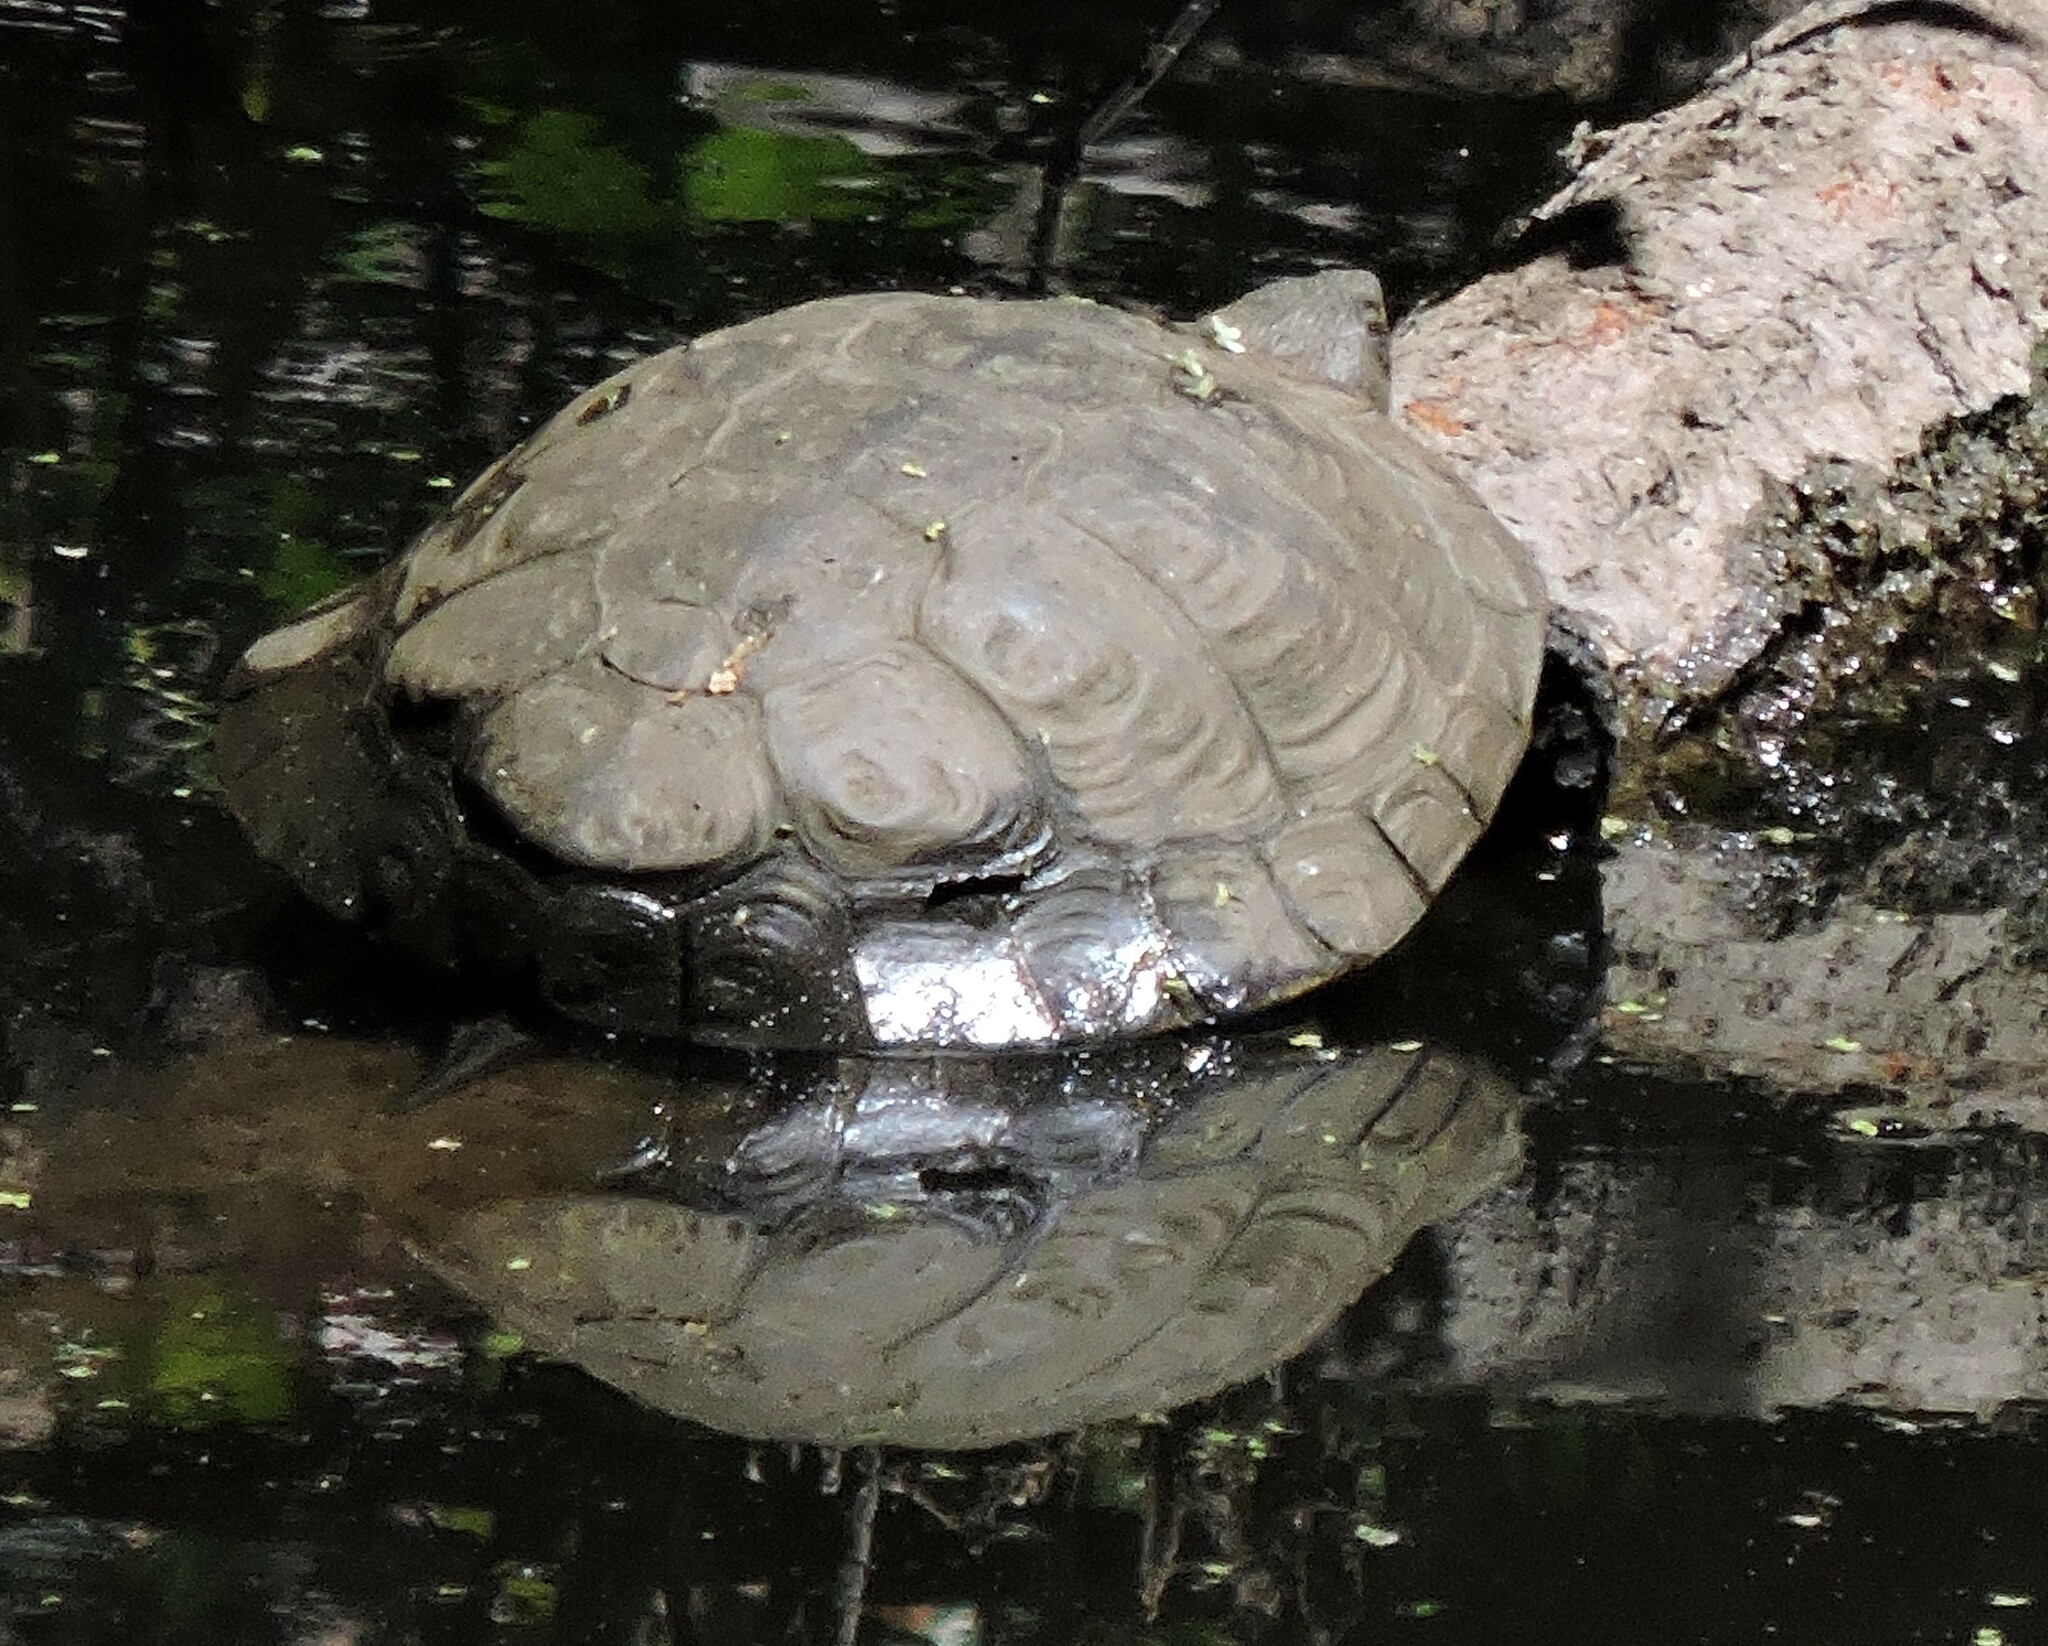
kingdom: Animalia
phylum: Chordata
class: Testudines
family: Emydidae
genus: Actinemys
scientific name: Actinemys marmorata
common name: Western pond turtle
